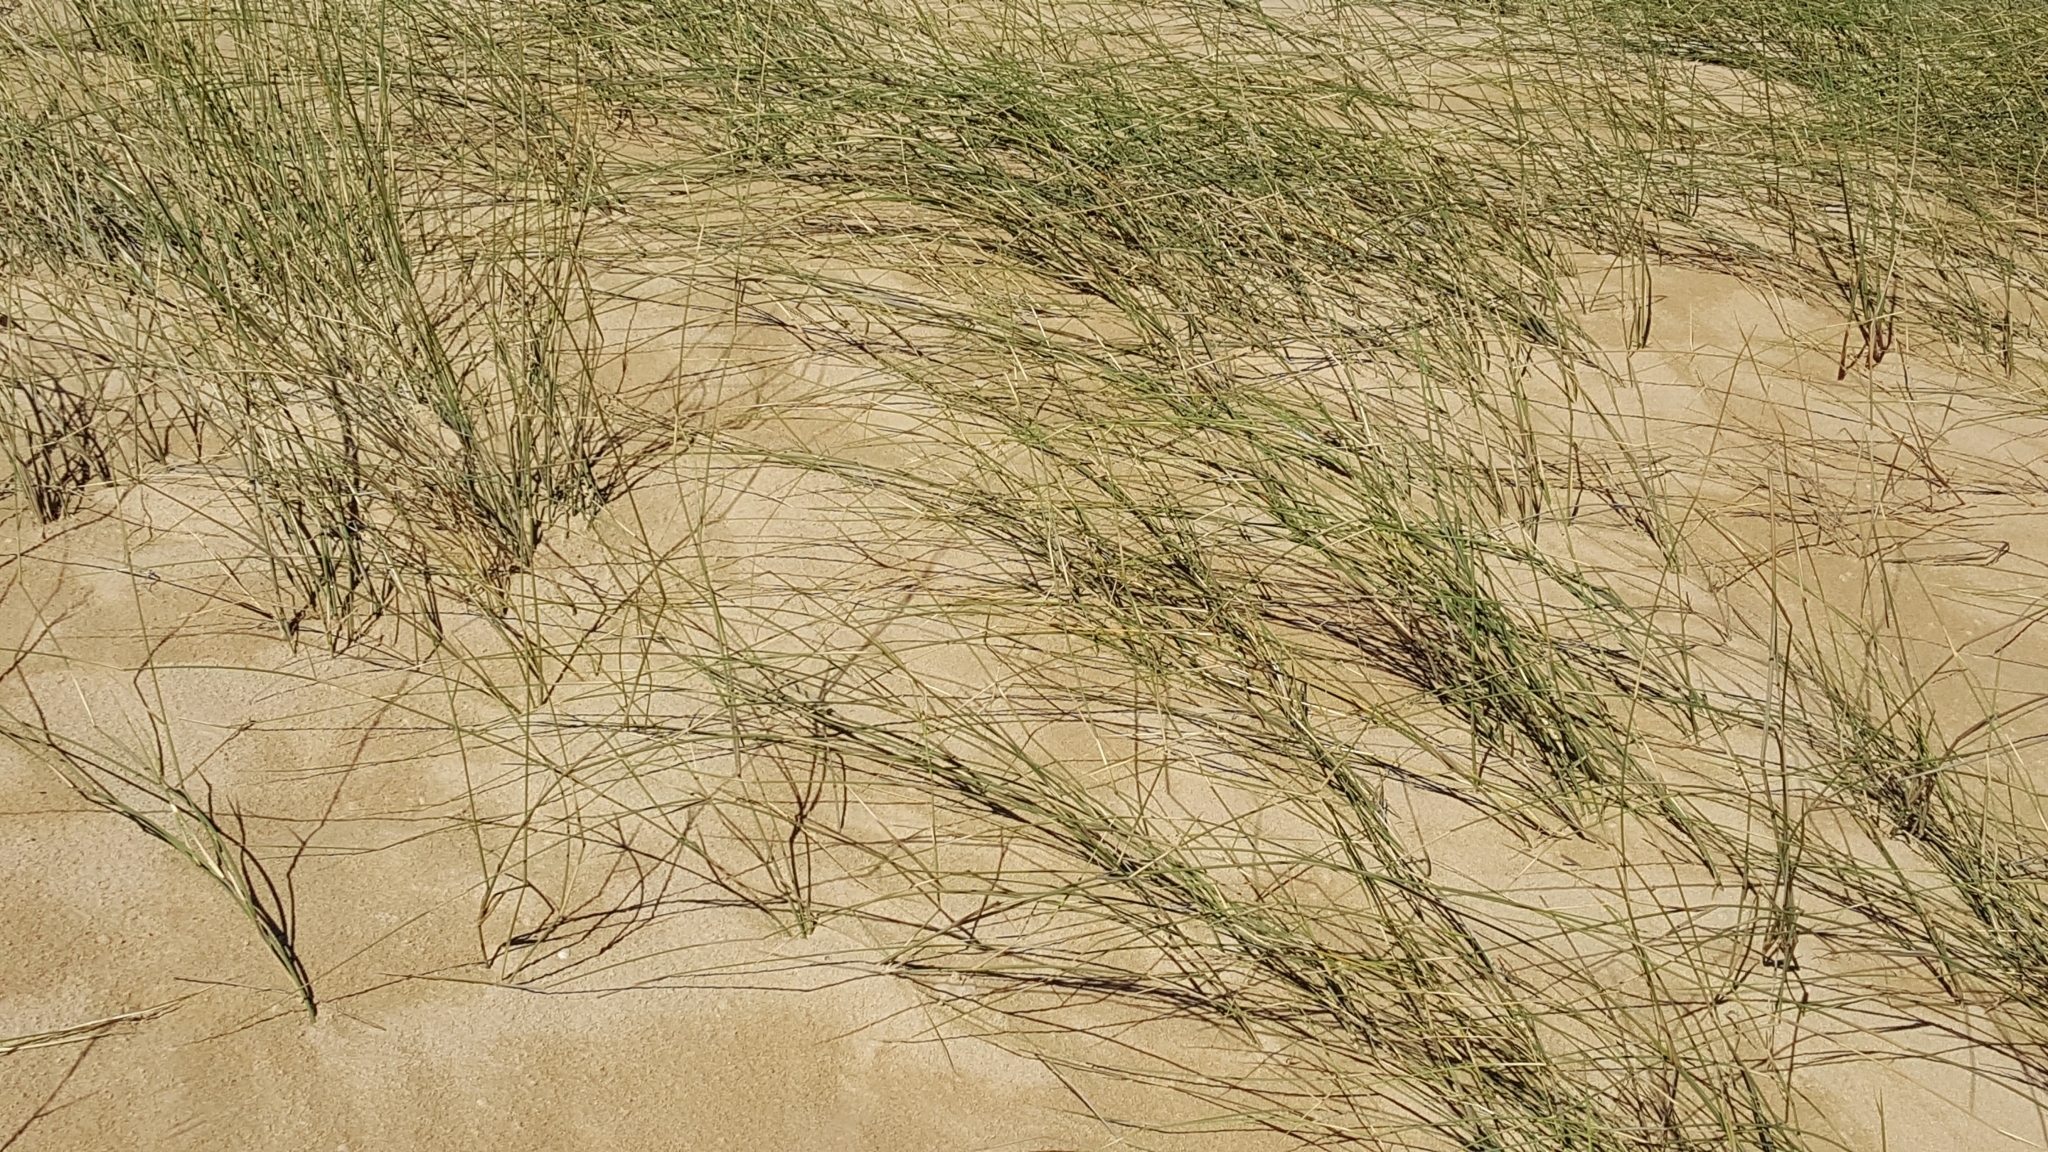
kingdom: Plantae
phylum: Tracheophyta
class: Liliopsida
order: Poales
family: Poaceae
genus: Ehrharta
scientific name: Ehrharta villosa
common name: Pyp grass
